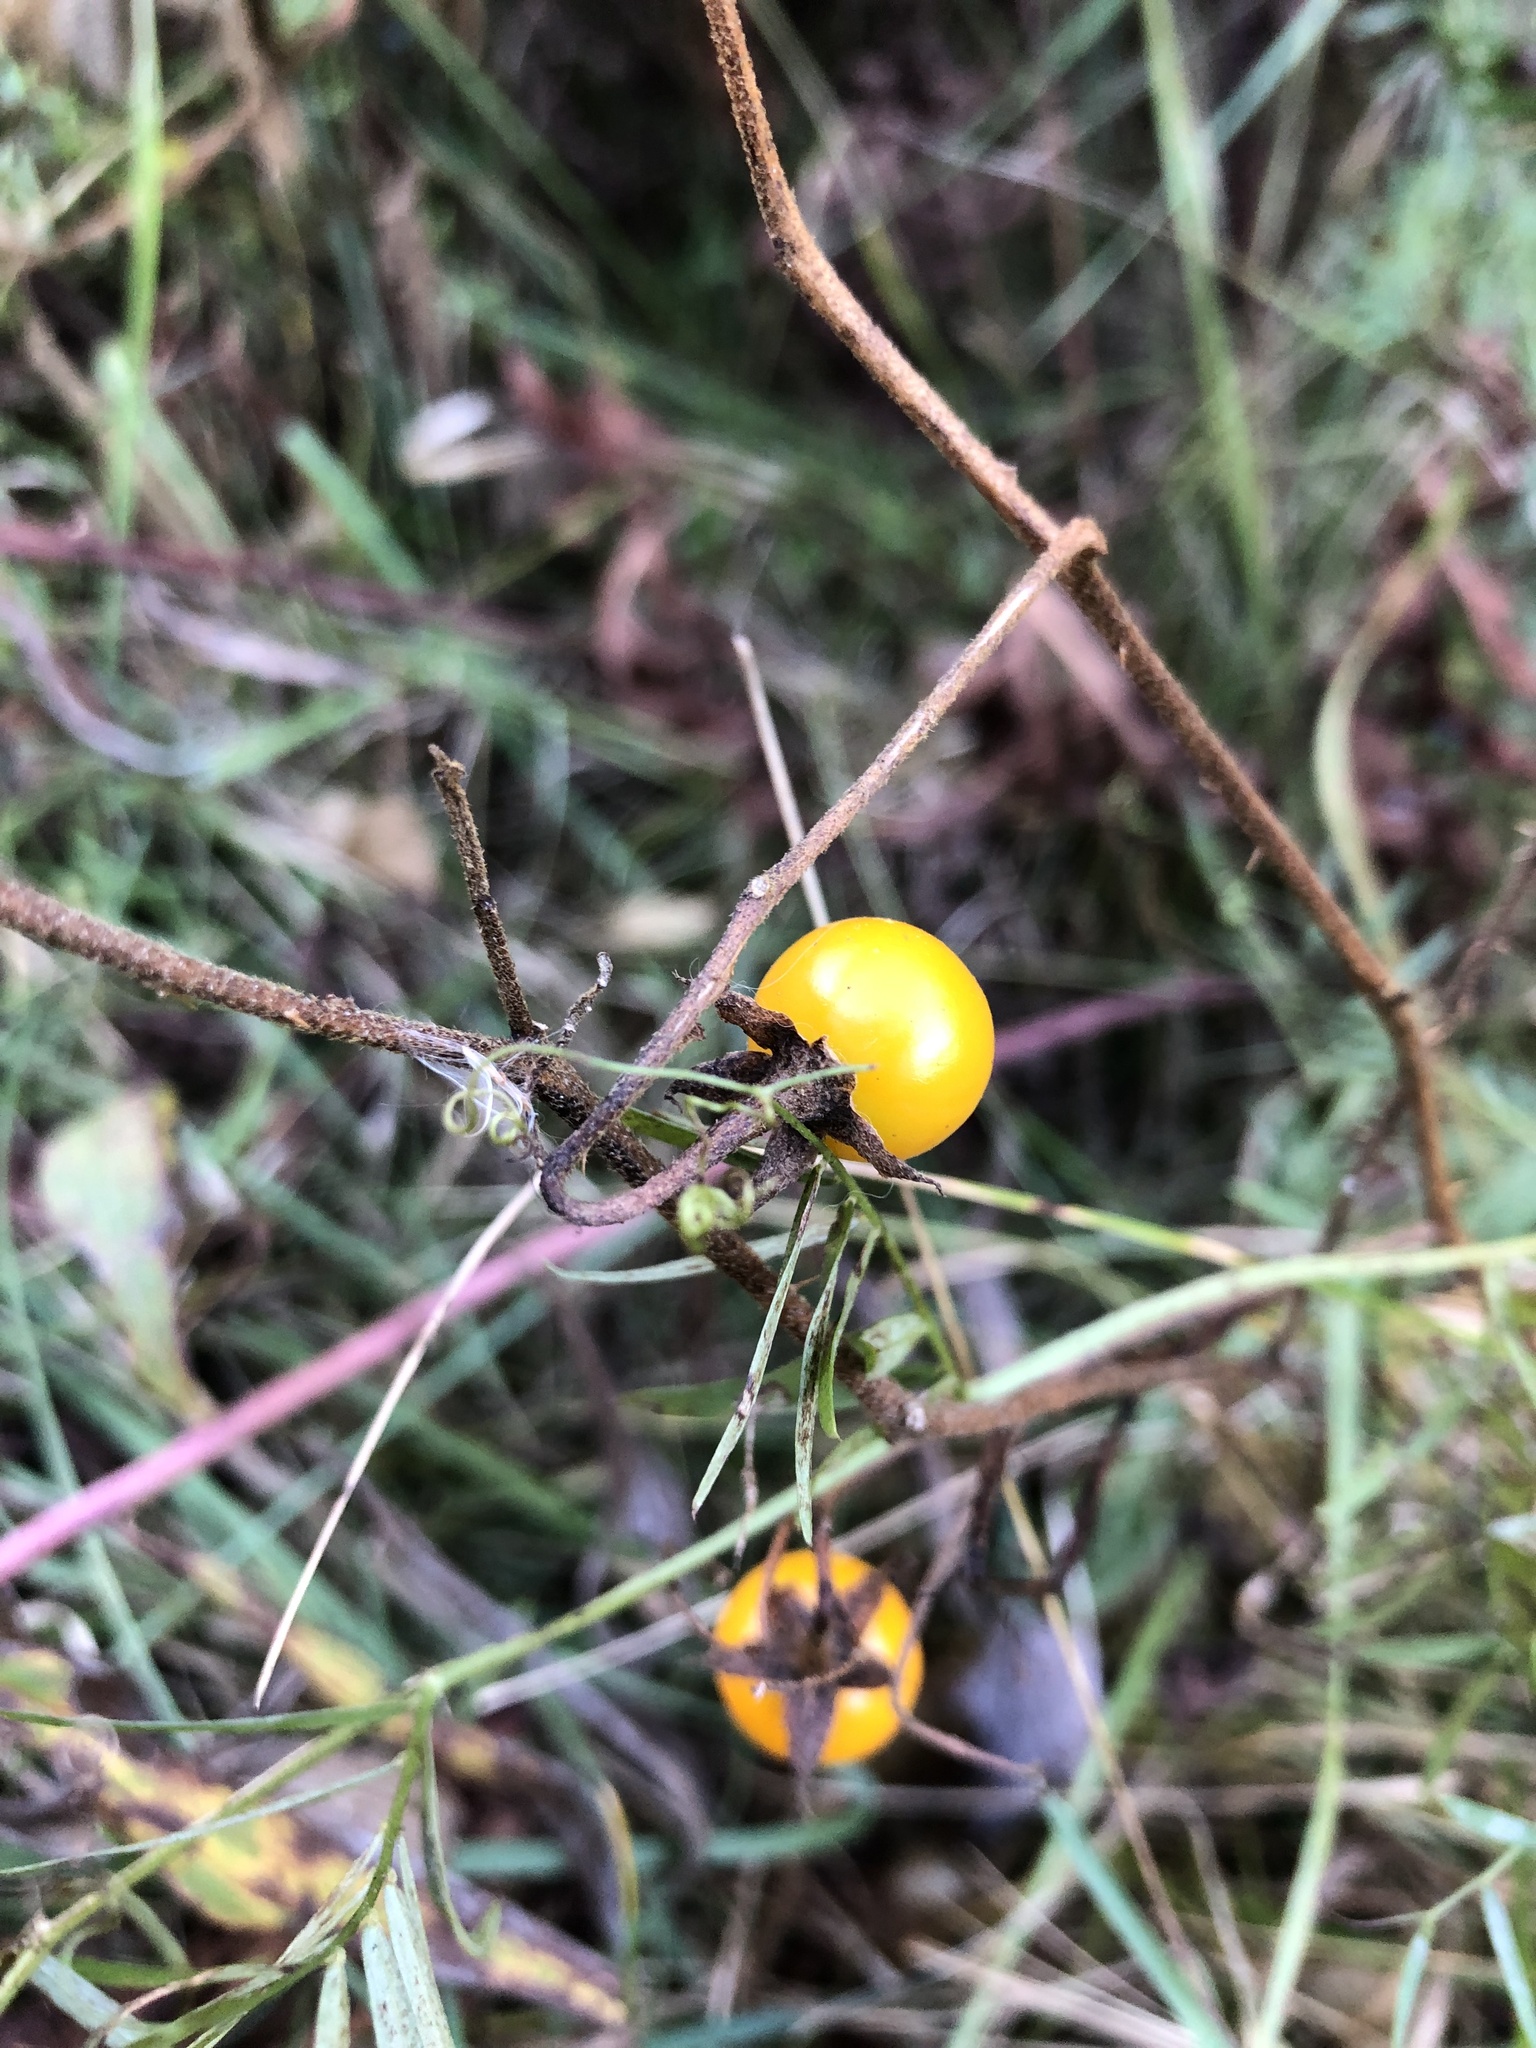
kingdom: Plantae
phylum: Tracheophyta
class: Magnoliopsida
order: Solanales
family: Solanaceae
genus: Solanum
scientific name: Solanum carolinense
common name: Horse-nettle
